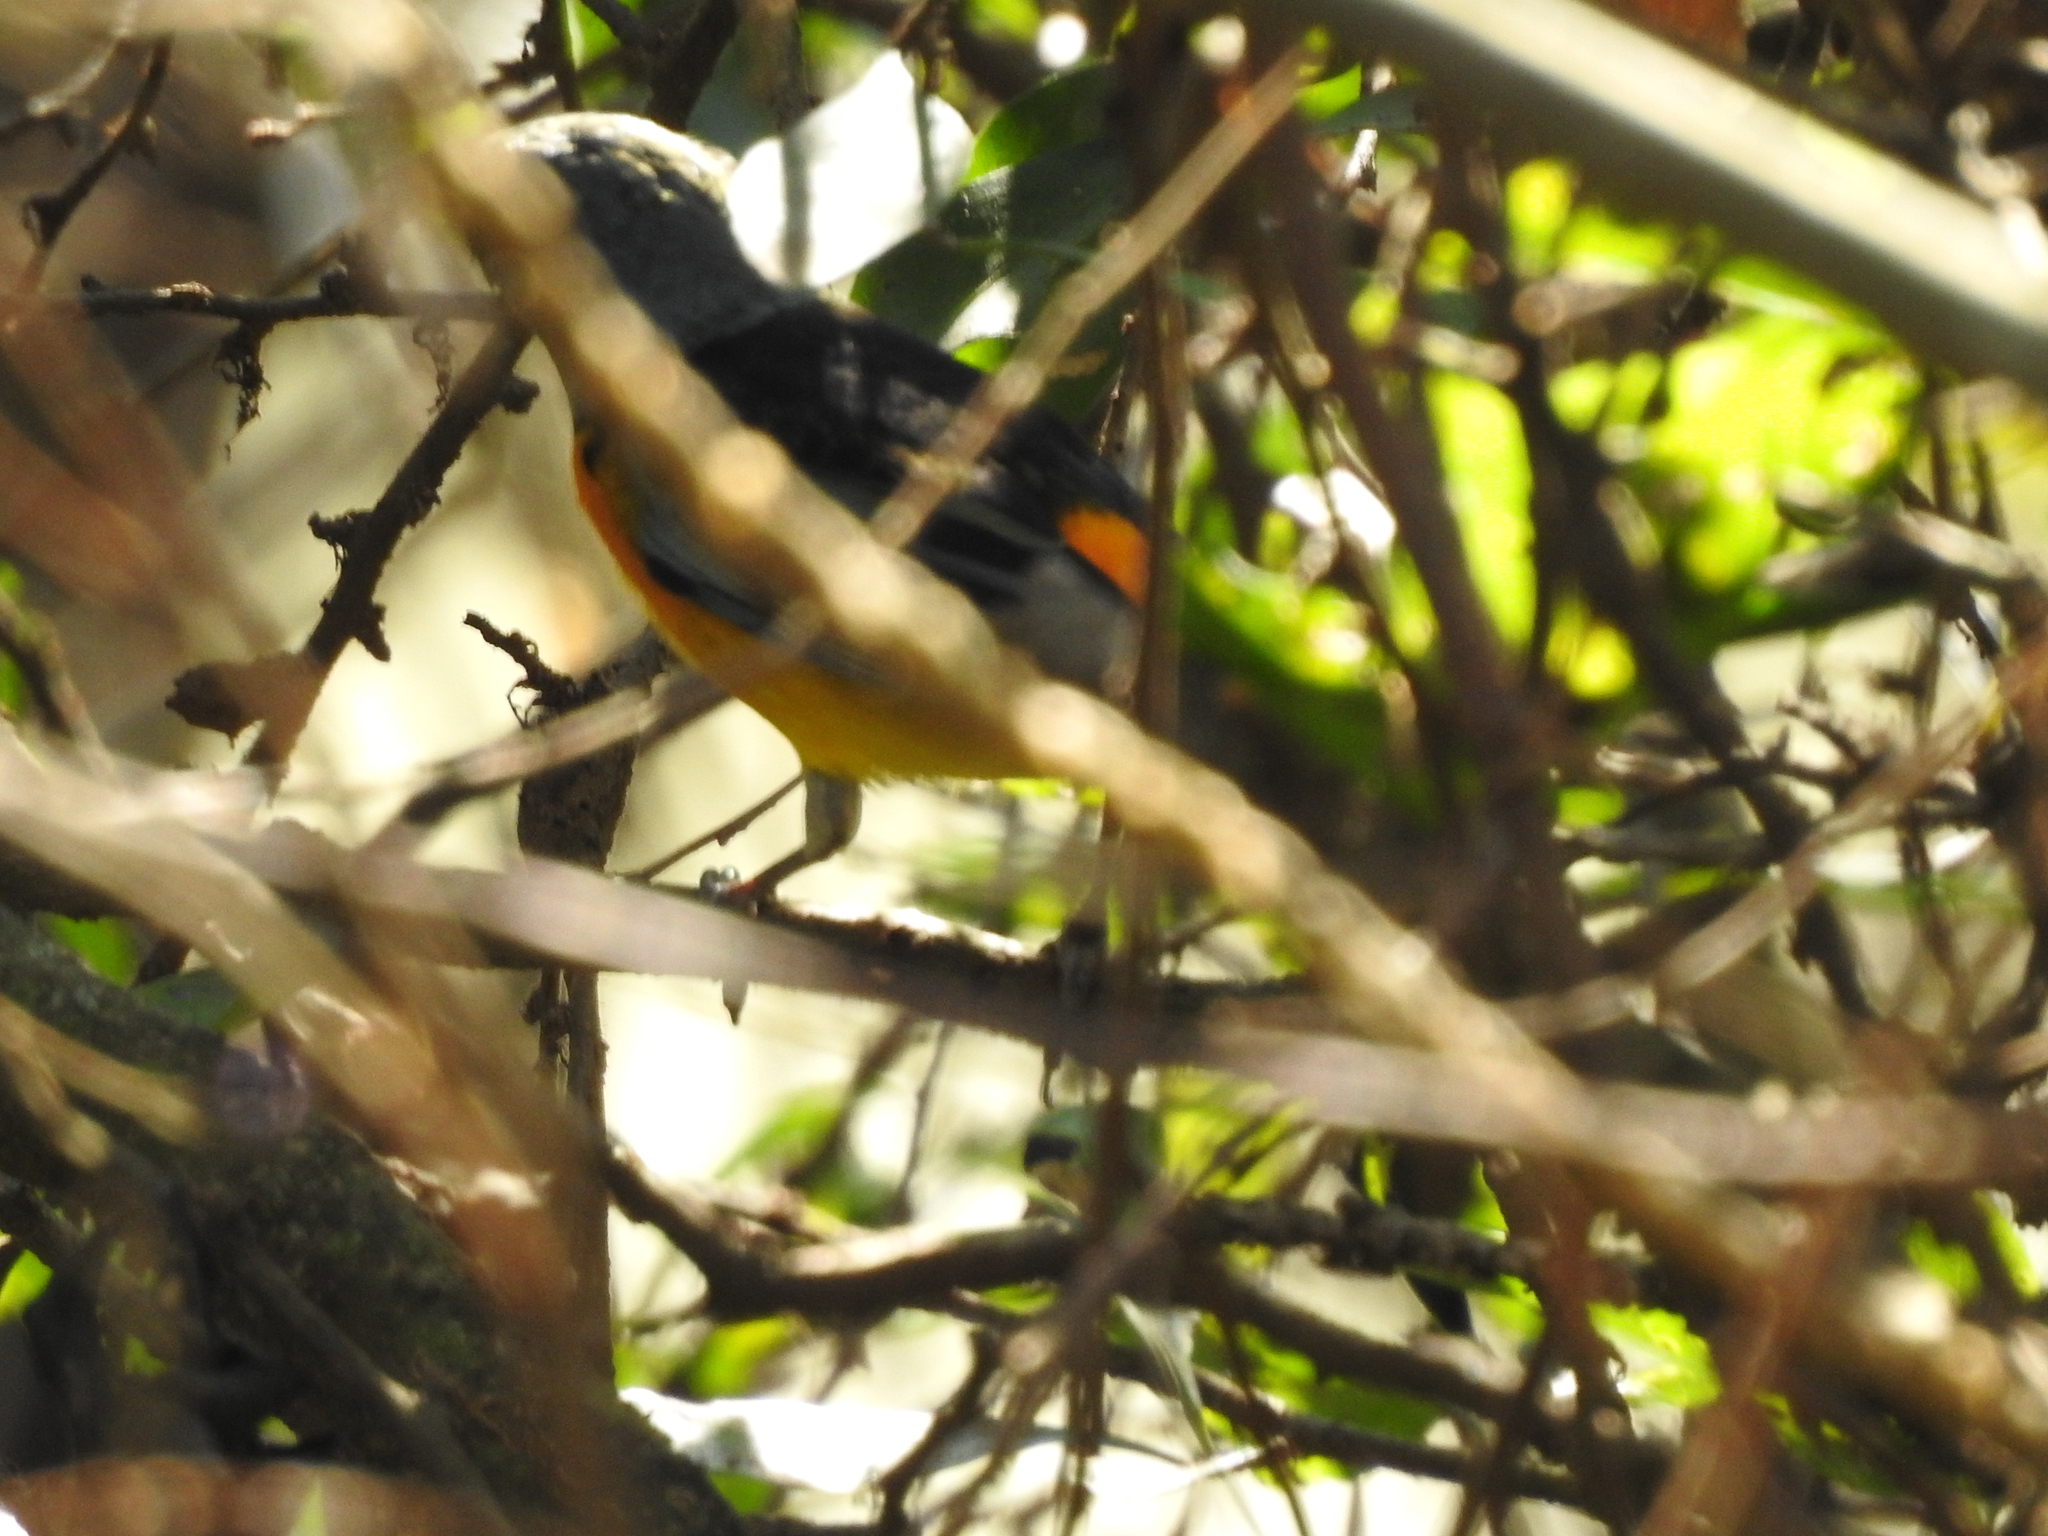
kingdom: Animalia
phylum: Chordata
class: Aves
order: Passeriformes
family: Thraupidae
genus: Rauenia
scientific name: Rauenia bonariensis
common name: Blue-and-yellow tanager
